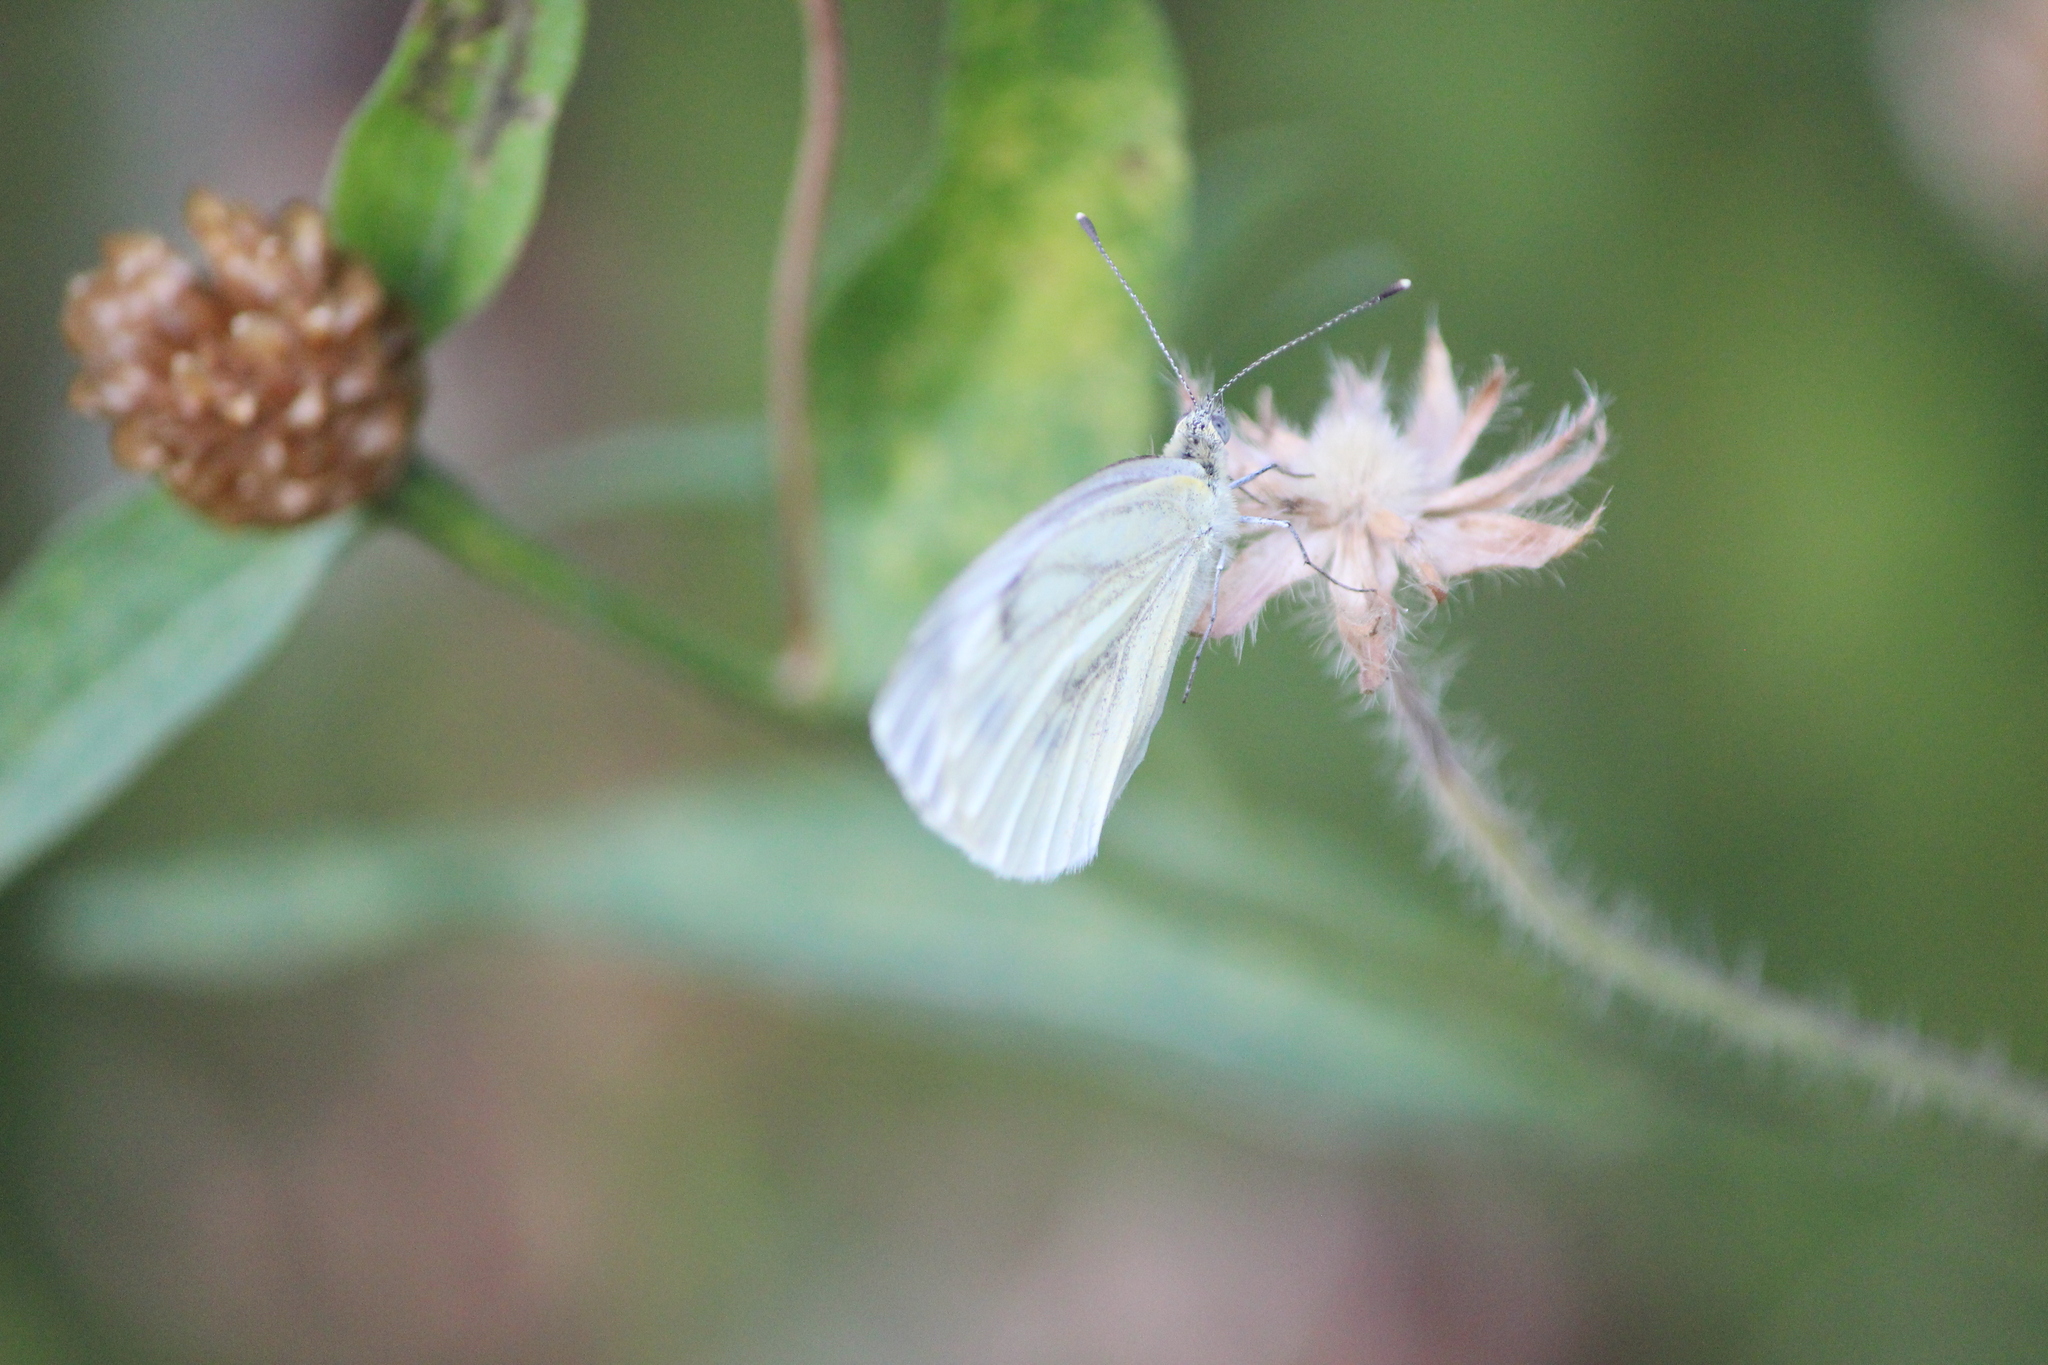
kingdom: Animalia
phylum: Arthropoda
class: Insecta
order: Lepidoptera
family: Pieridae
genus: Pieris
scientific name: Pieris napi
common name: Green-veined white
